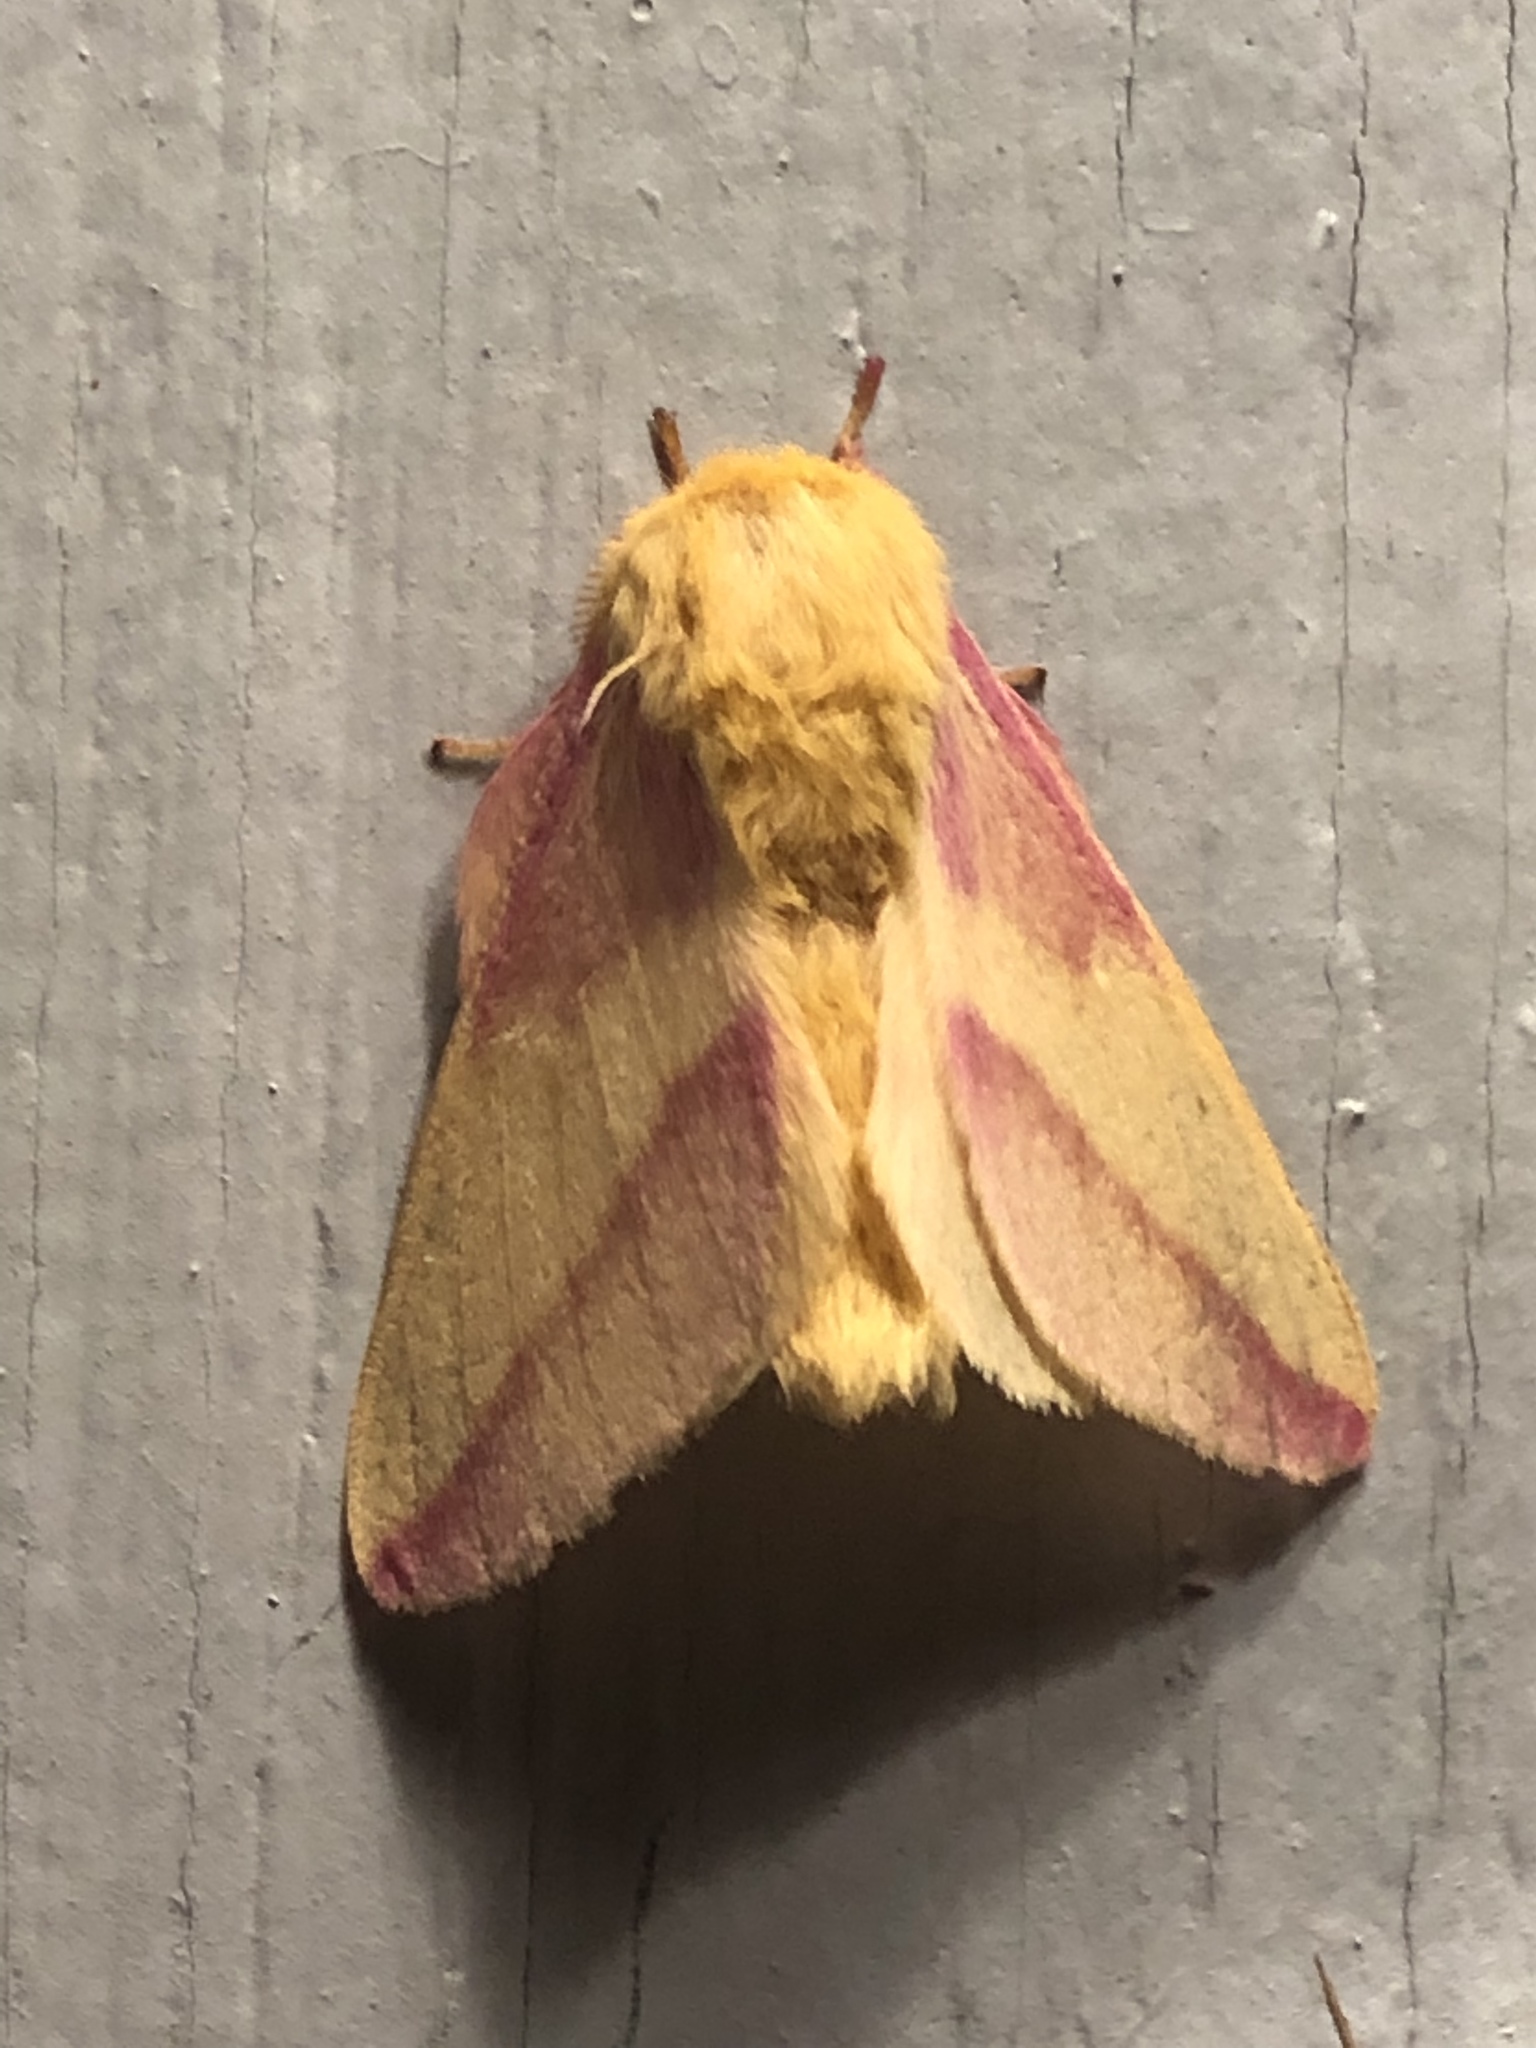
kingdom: Animalia
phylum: Arthropoda
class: Insecta
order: Lepidoptera
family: Saturniidae
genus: Dryocampa
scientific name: Dryocampa rubicunda
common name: Rosy maple moth
